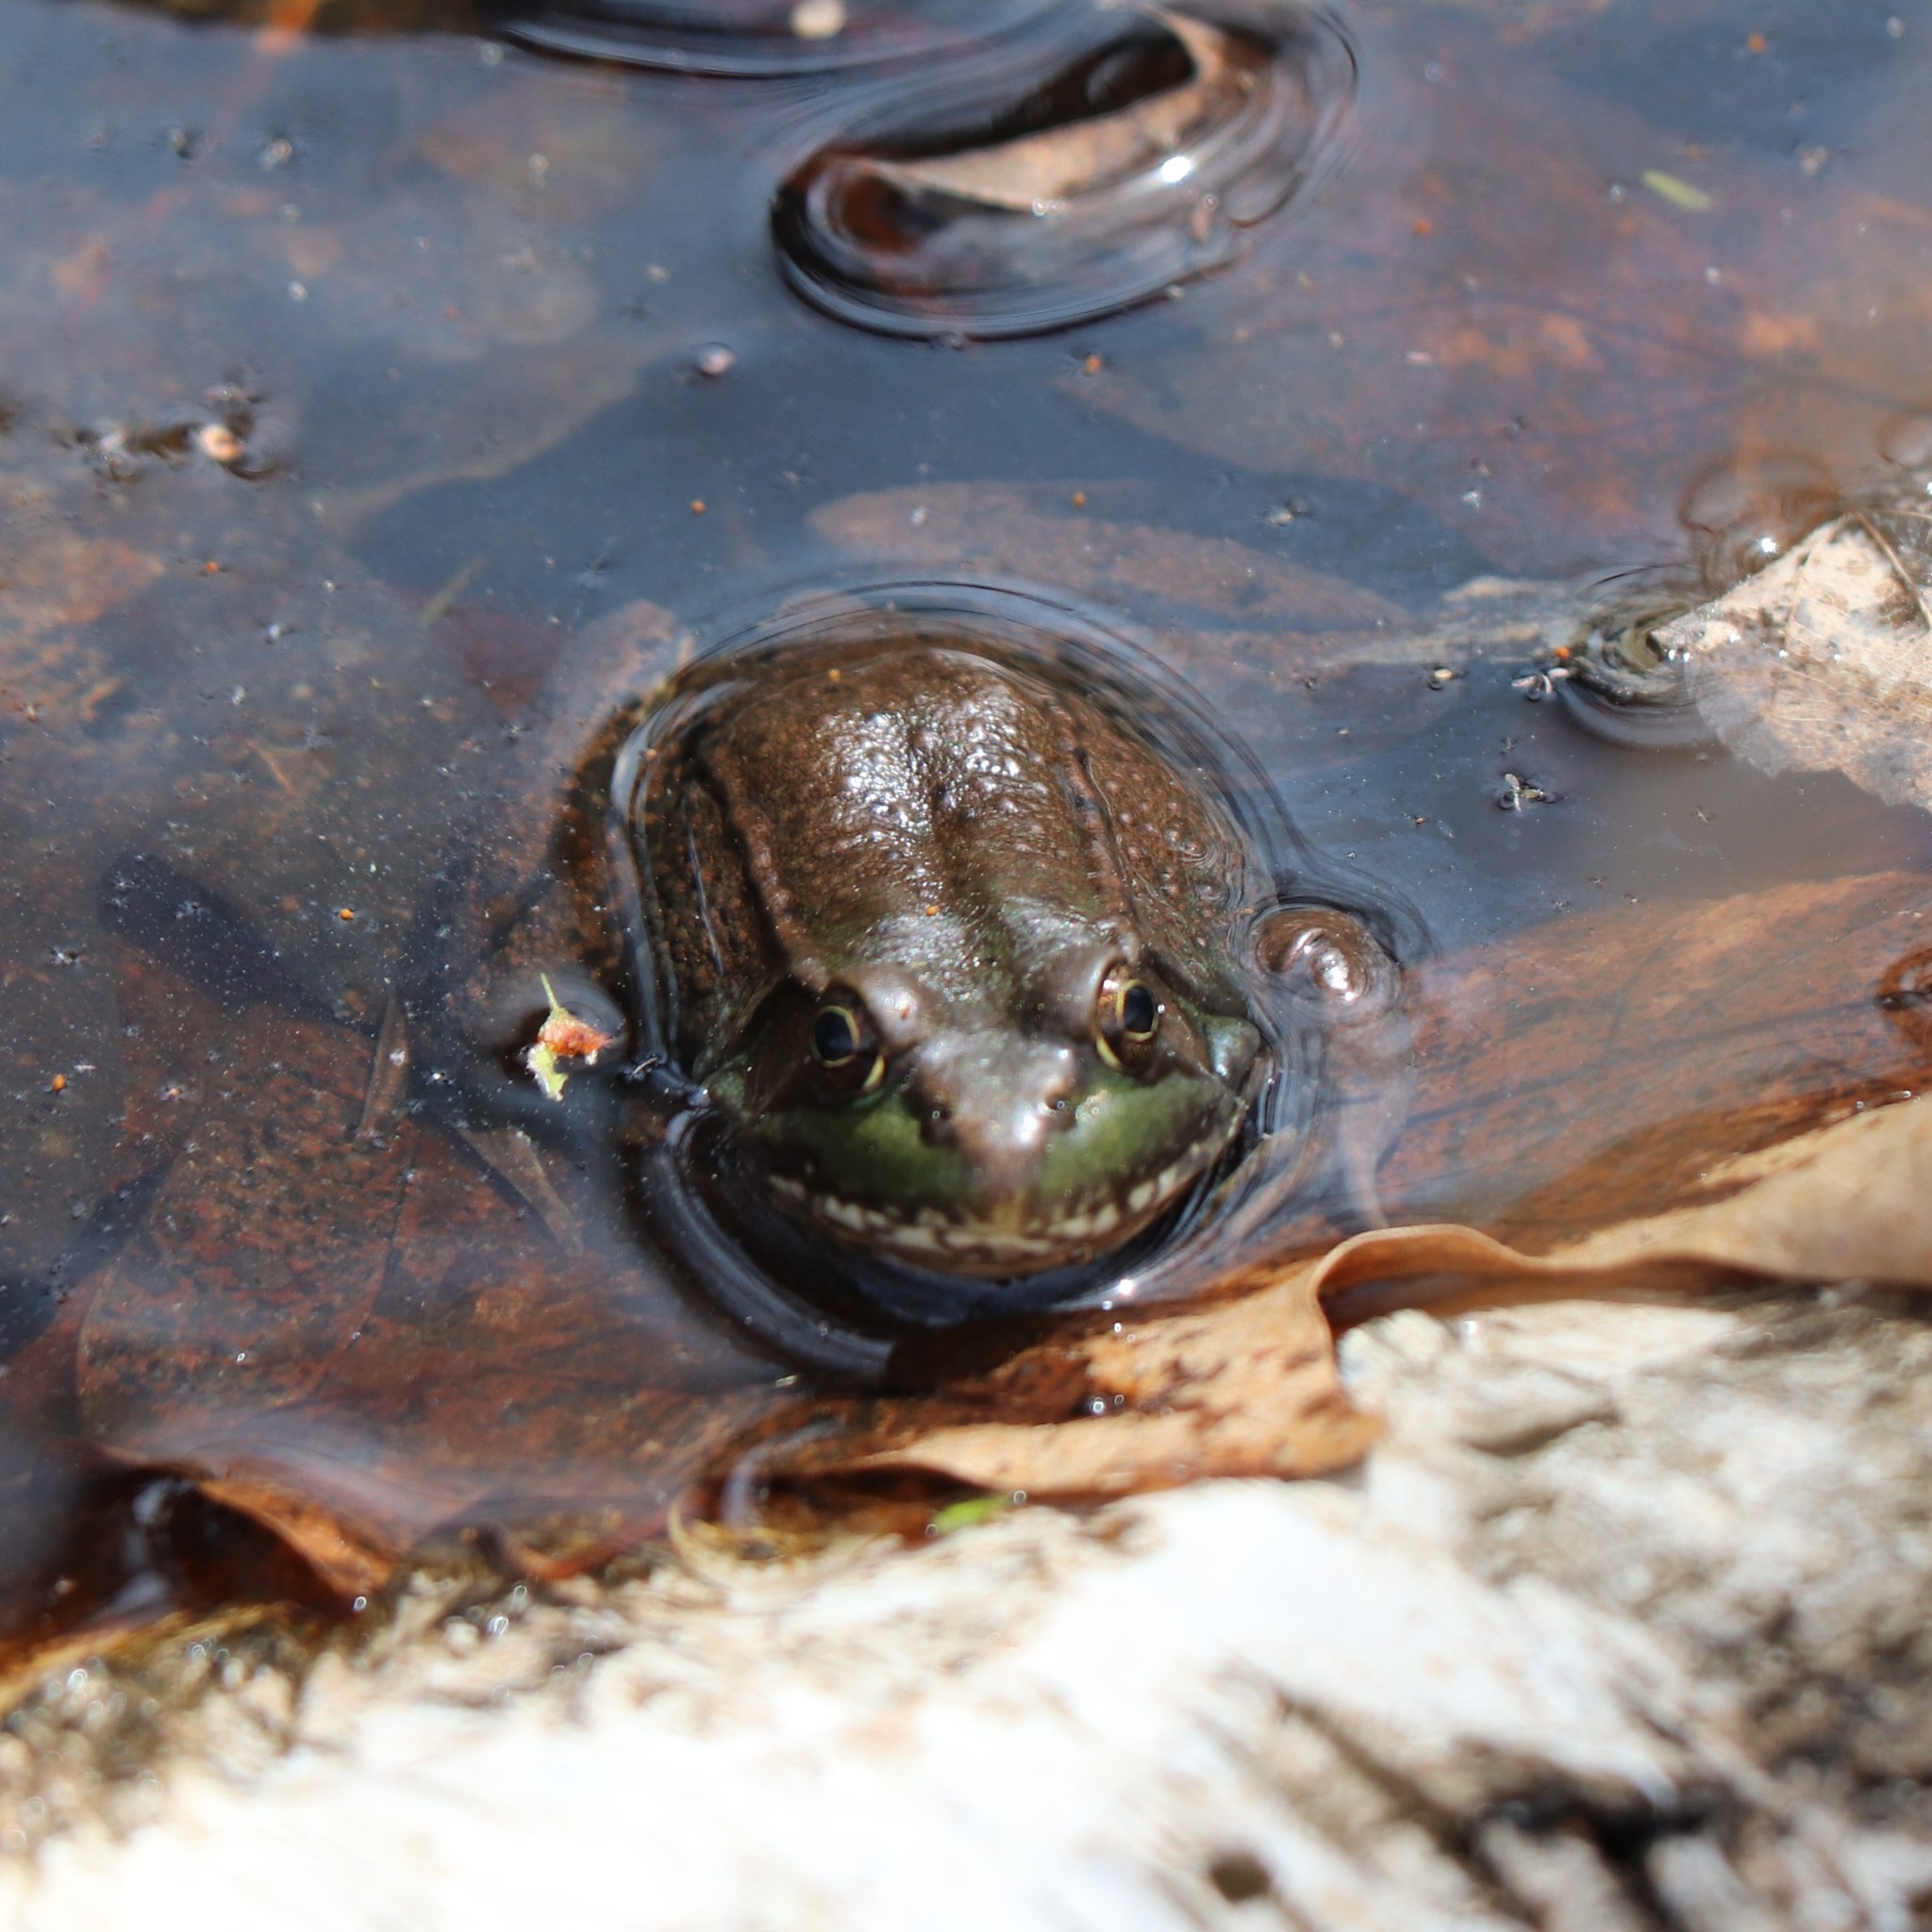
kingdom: Animalia
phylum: Chordata
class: Amphibia
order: Anura
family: Ranidae
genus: Lithobates
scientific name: Lithobates clamitans
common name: Green frog
